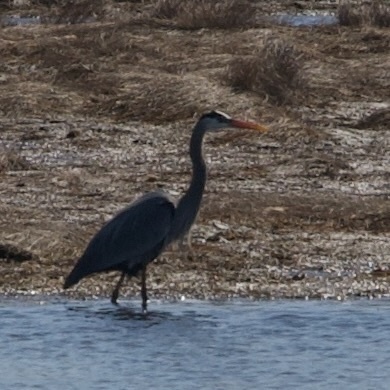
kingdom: Animalia
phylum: Chordata
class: Aves
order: Pelecaniformes
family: Ardeidae
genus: Ardea
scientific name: Ardea herodias
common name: Great blue heron
